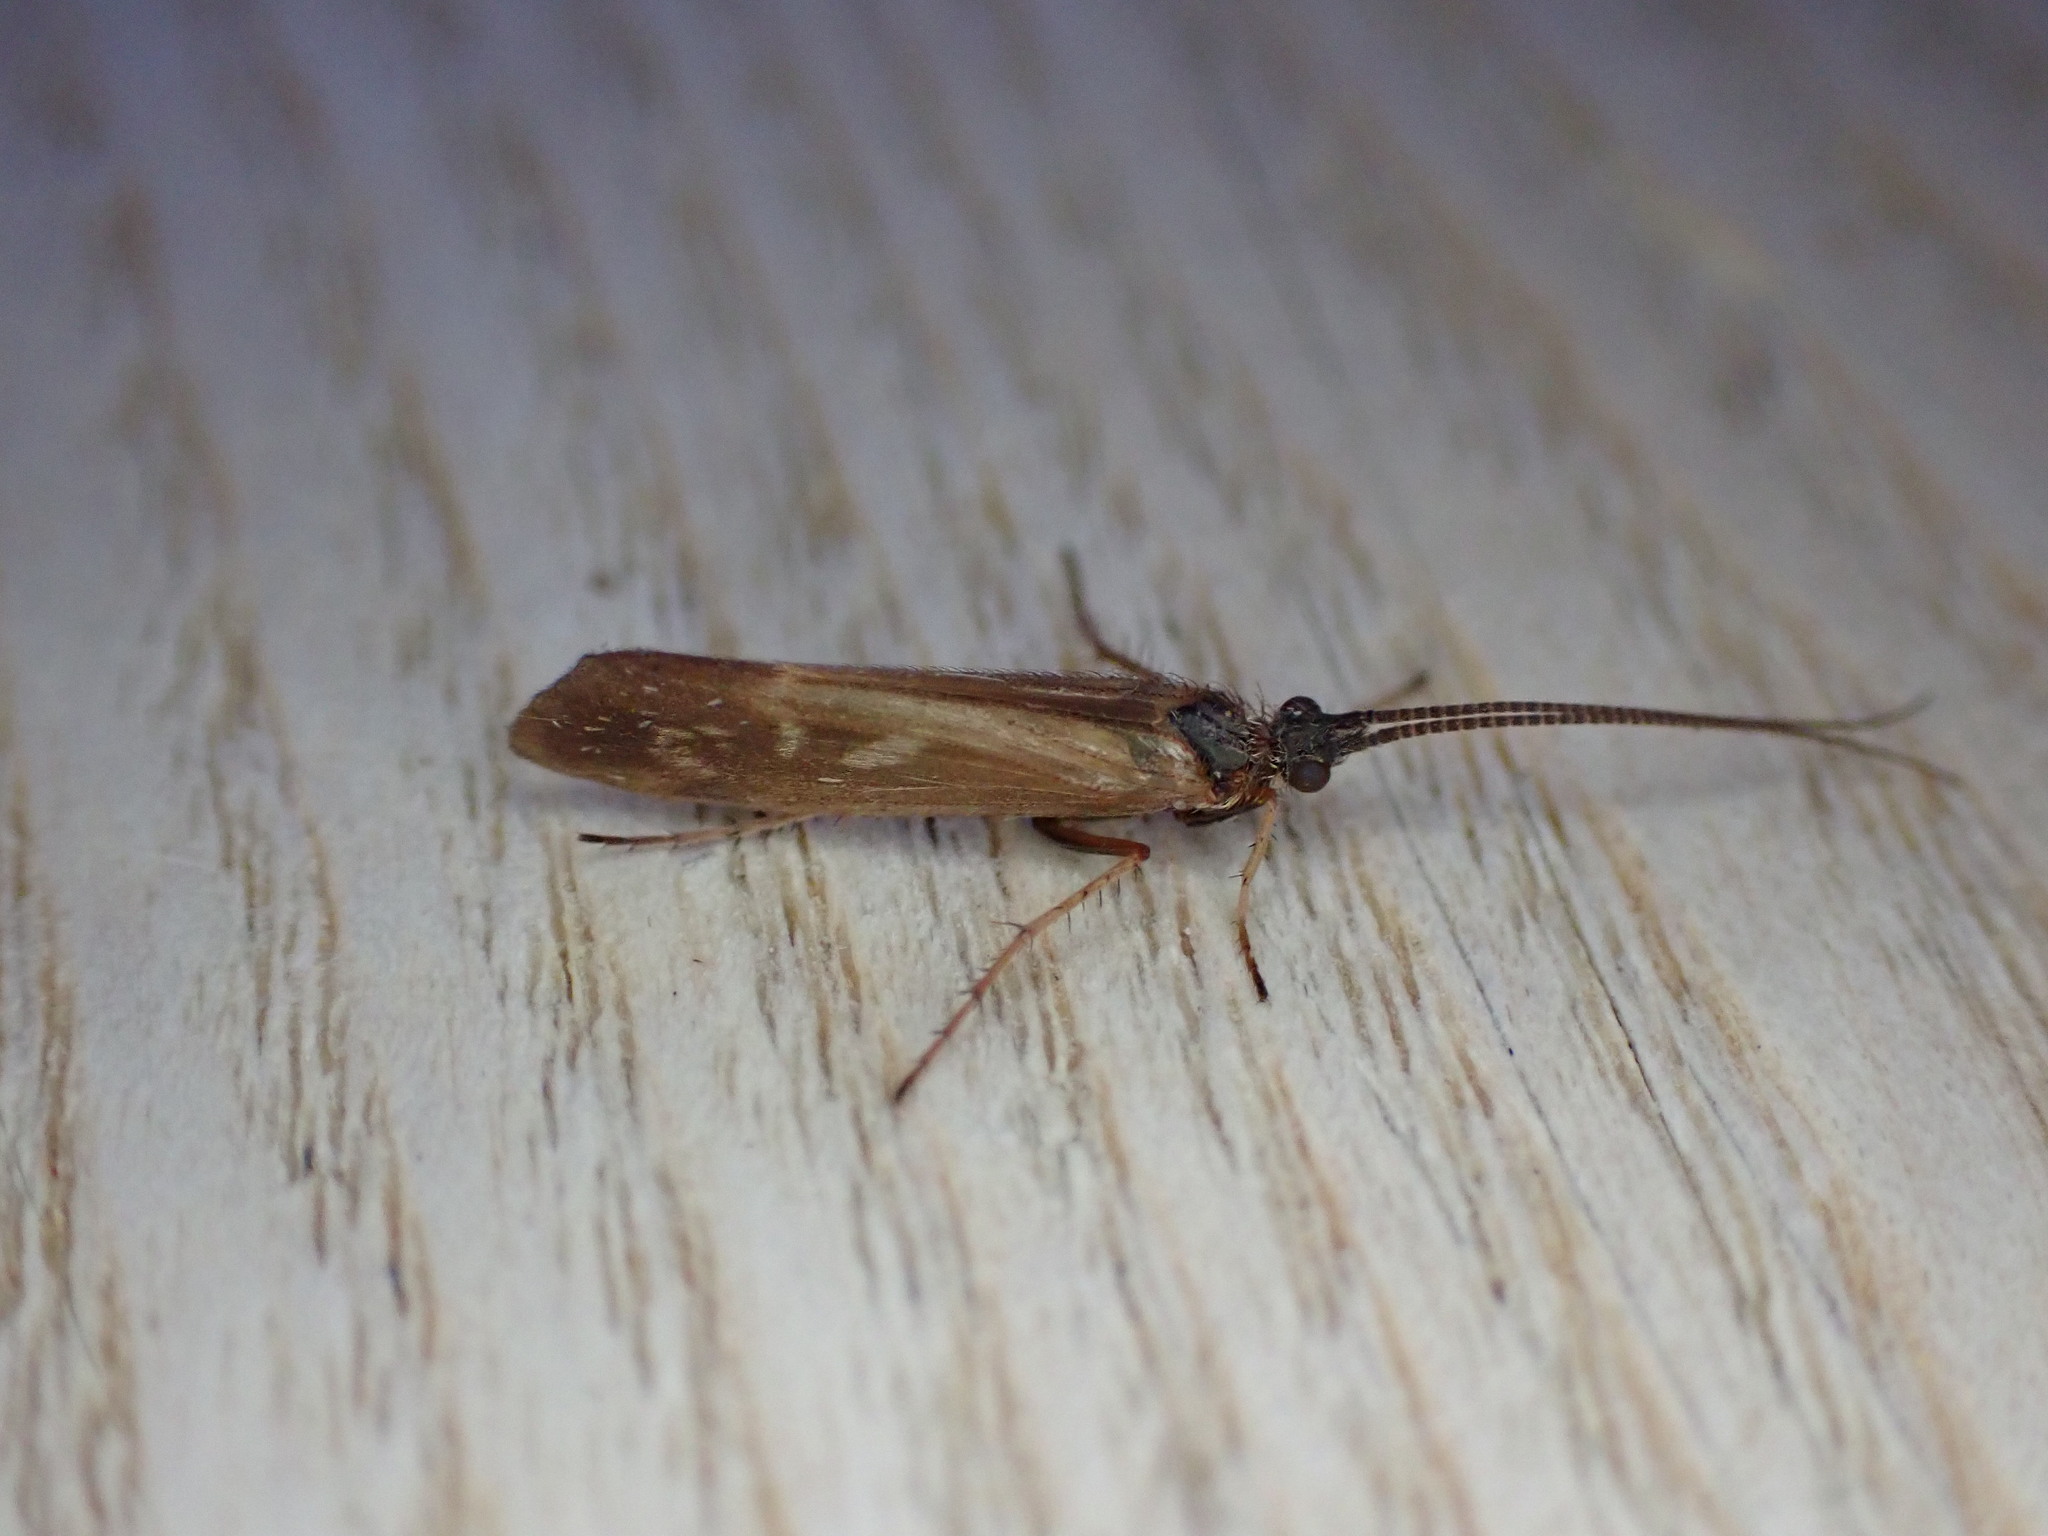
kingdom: Animalia
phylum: Arthropoda
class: Insecta
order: Trichoptera
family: Limnephilidae
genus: Limnephilus
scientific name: Limnephilus auricula
